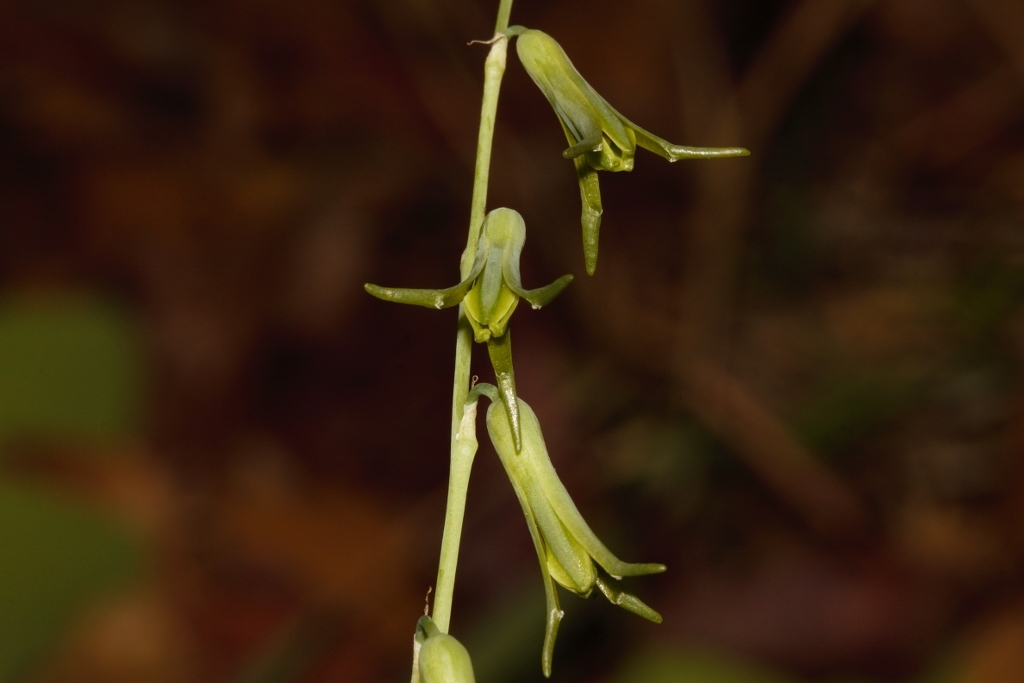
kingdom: Plantae
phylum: Tracheophyta
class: Liliopsida
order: Asparagales
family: Asparagaceae
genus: Dipcadi
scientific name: Dipcadi viride
